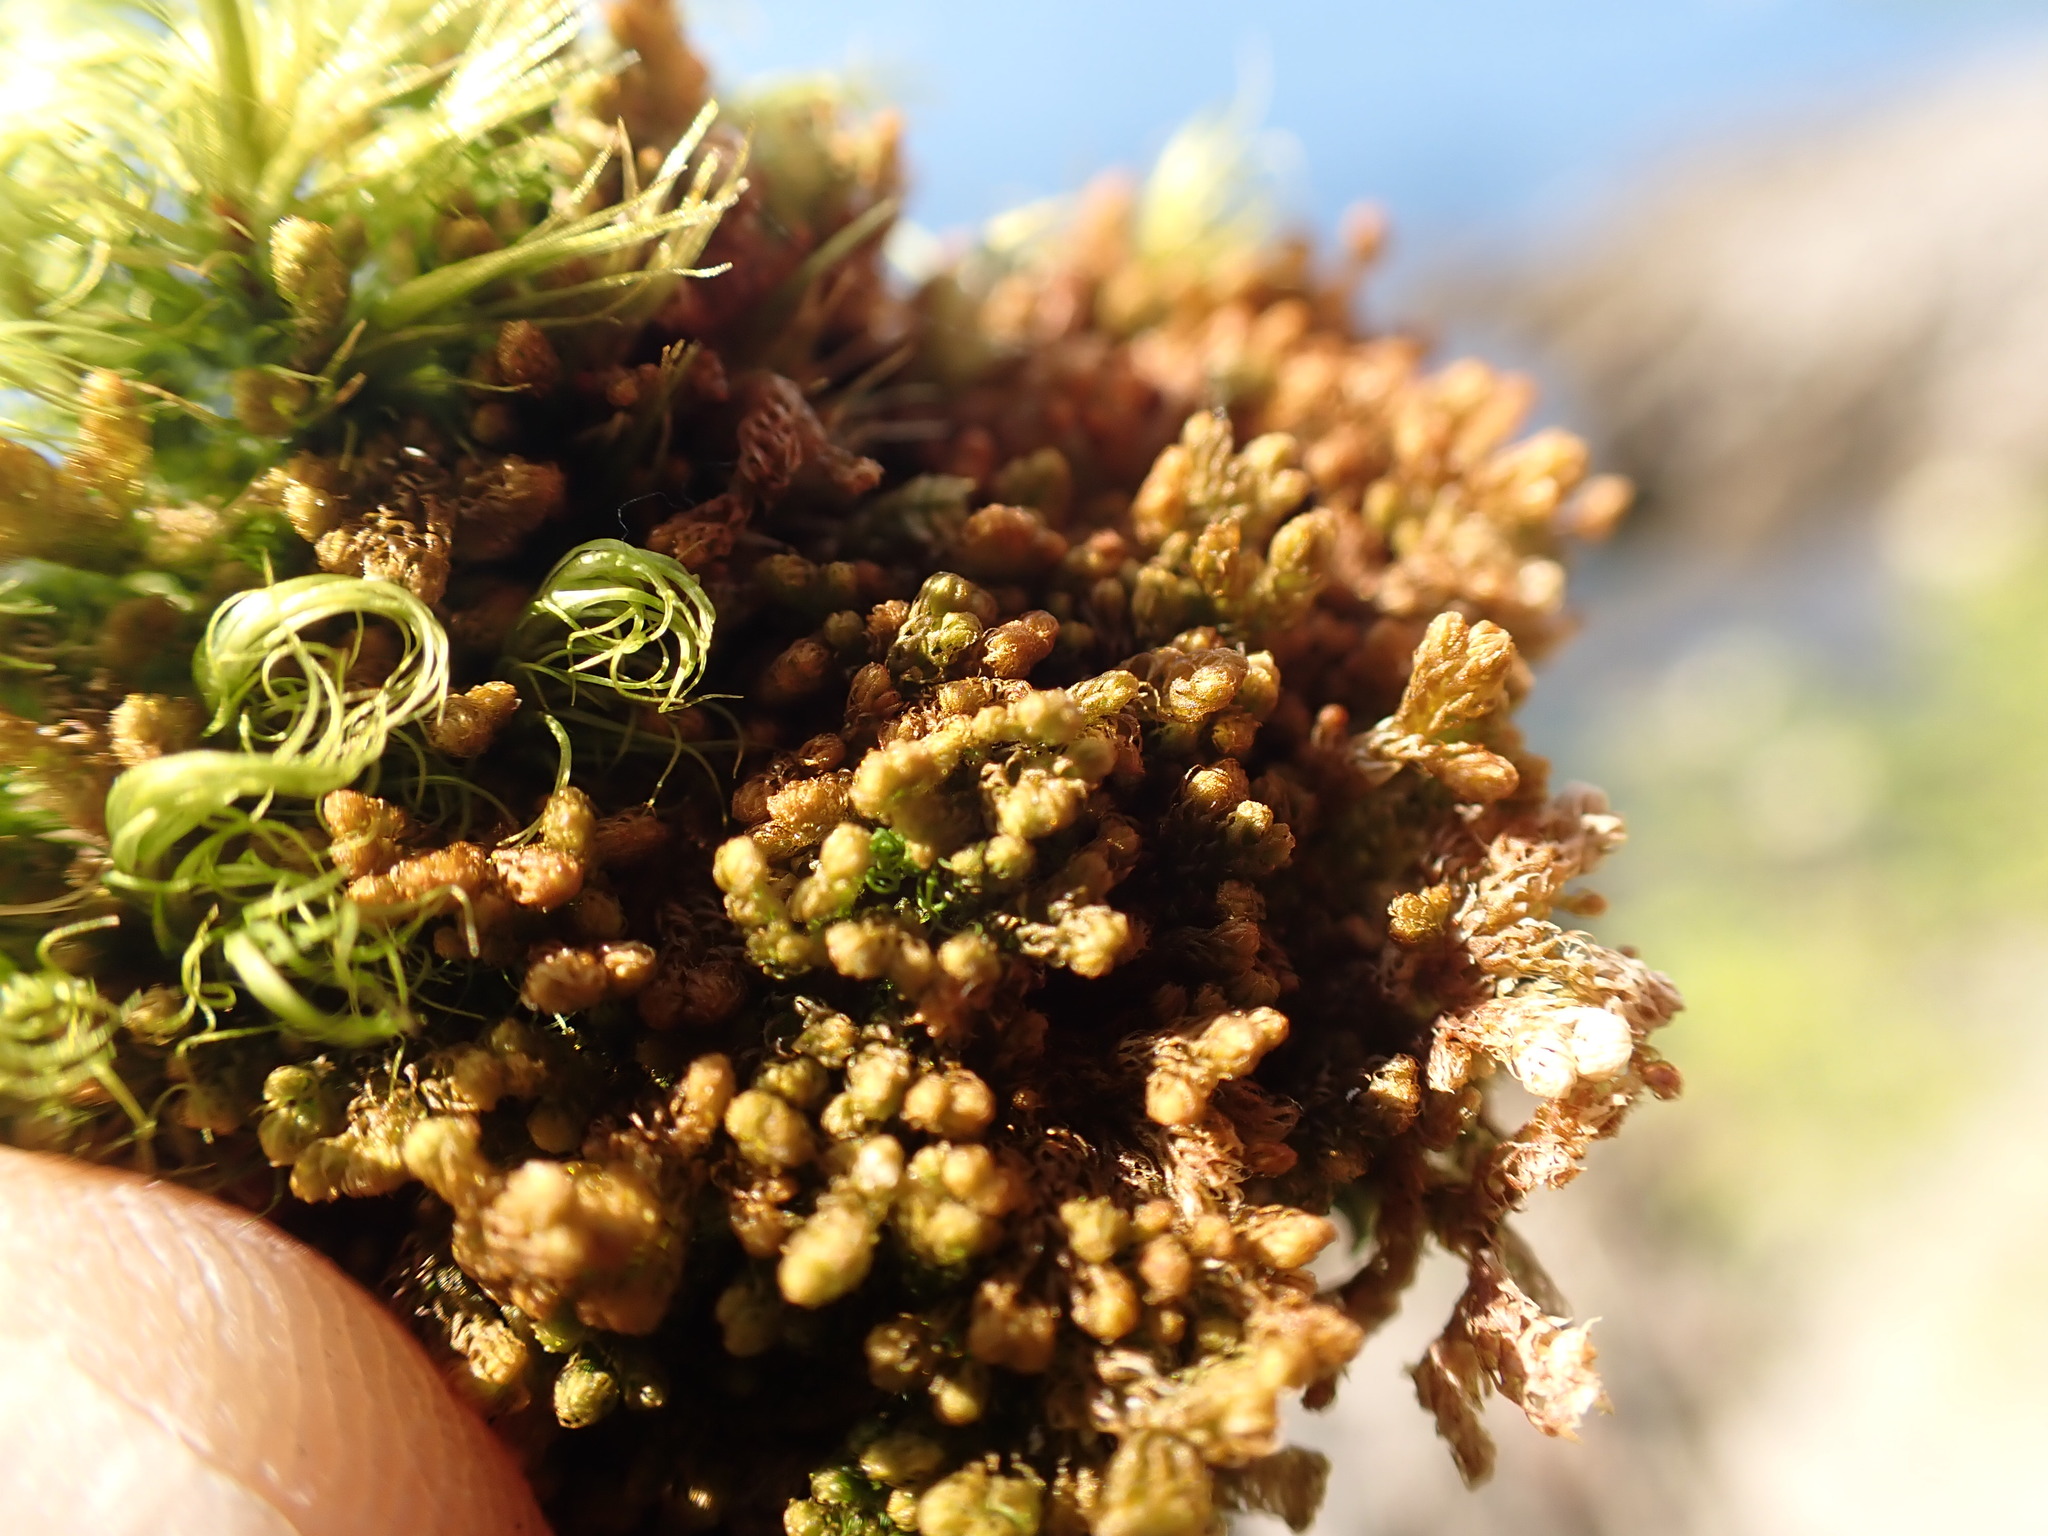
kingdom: Plantae
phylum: Marchantiophyta
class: Jungermanniopsida
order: Ptilidiales
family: Ptilidiaceae
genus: Ptilidium
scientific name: Ptilidium californicum
